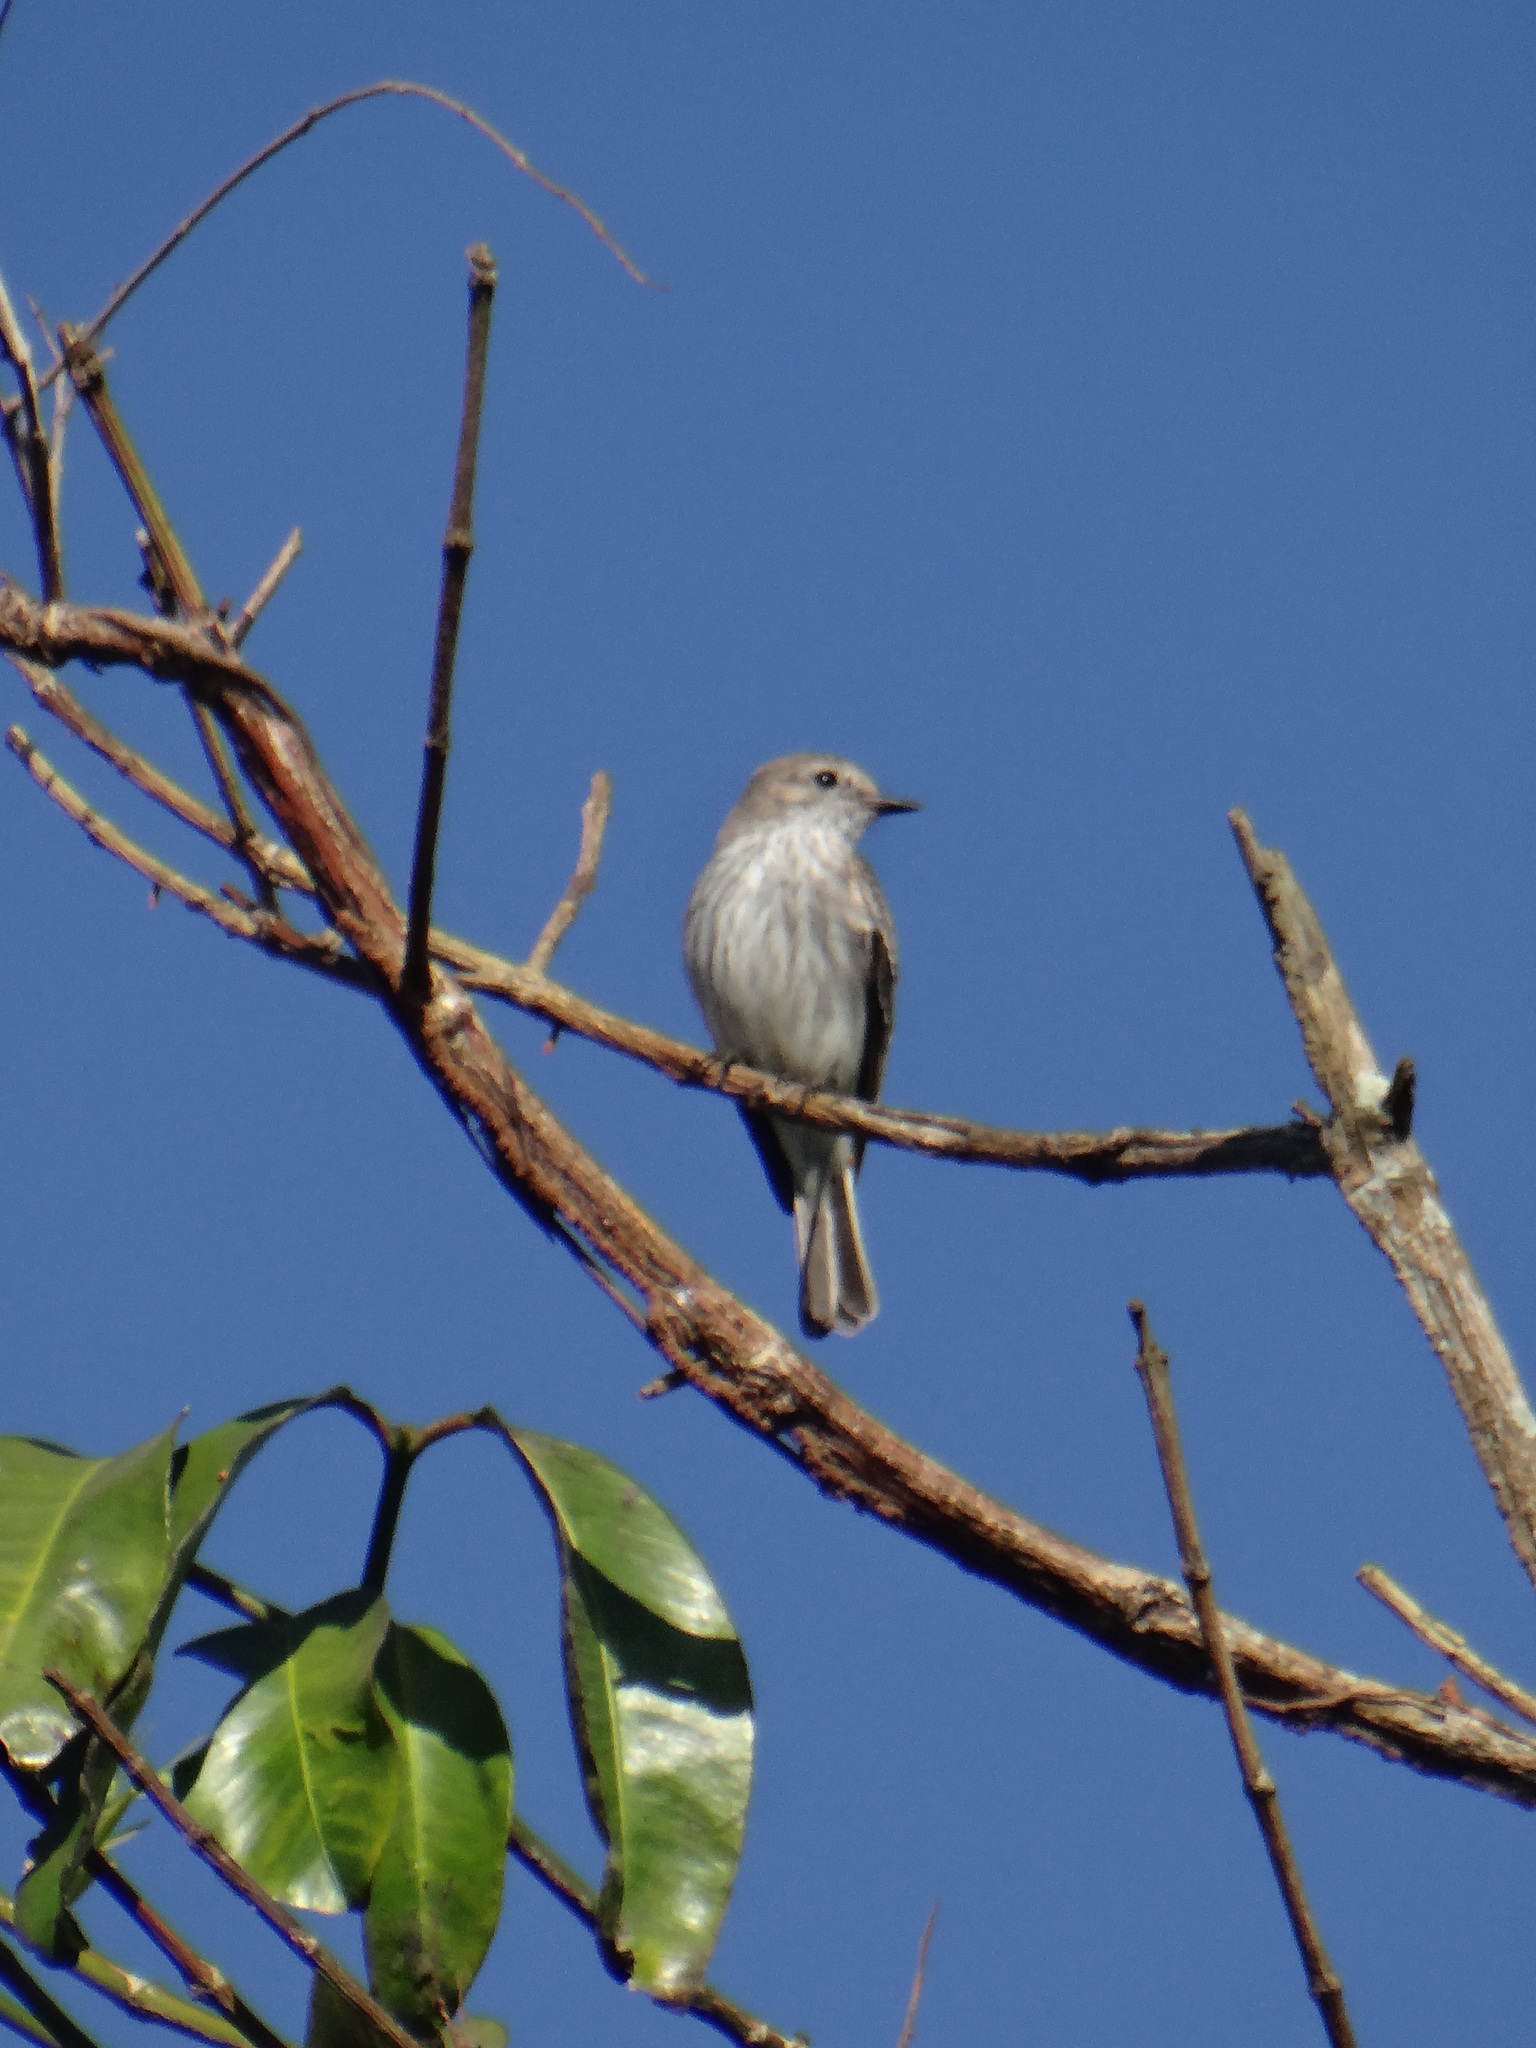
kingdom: Animalia
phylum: Chordata
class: Aves
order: Passeriformes
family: Tyrannidae
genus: Pyrocephalus
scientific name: Pyrocephalus rubinus
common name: Vermilion flycatcher
